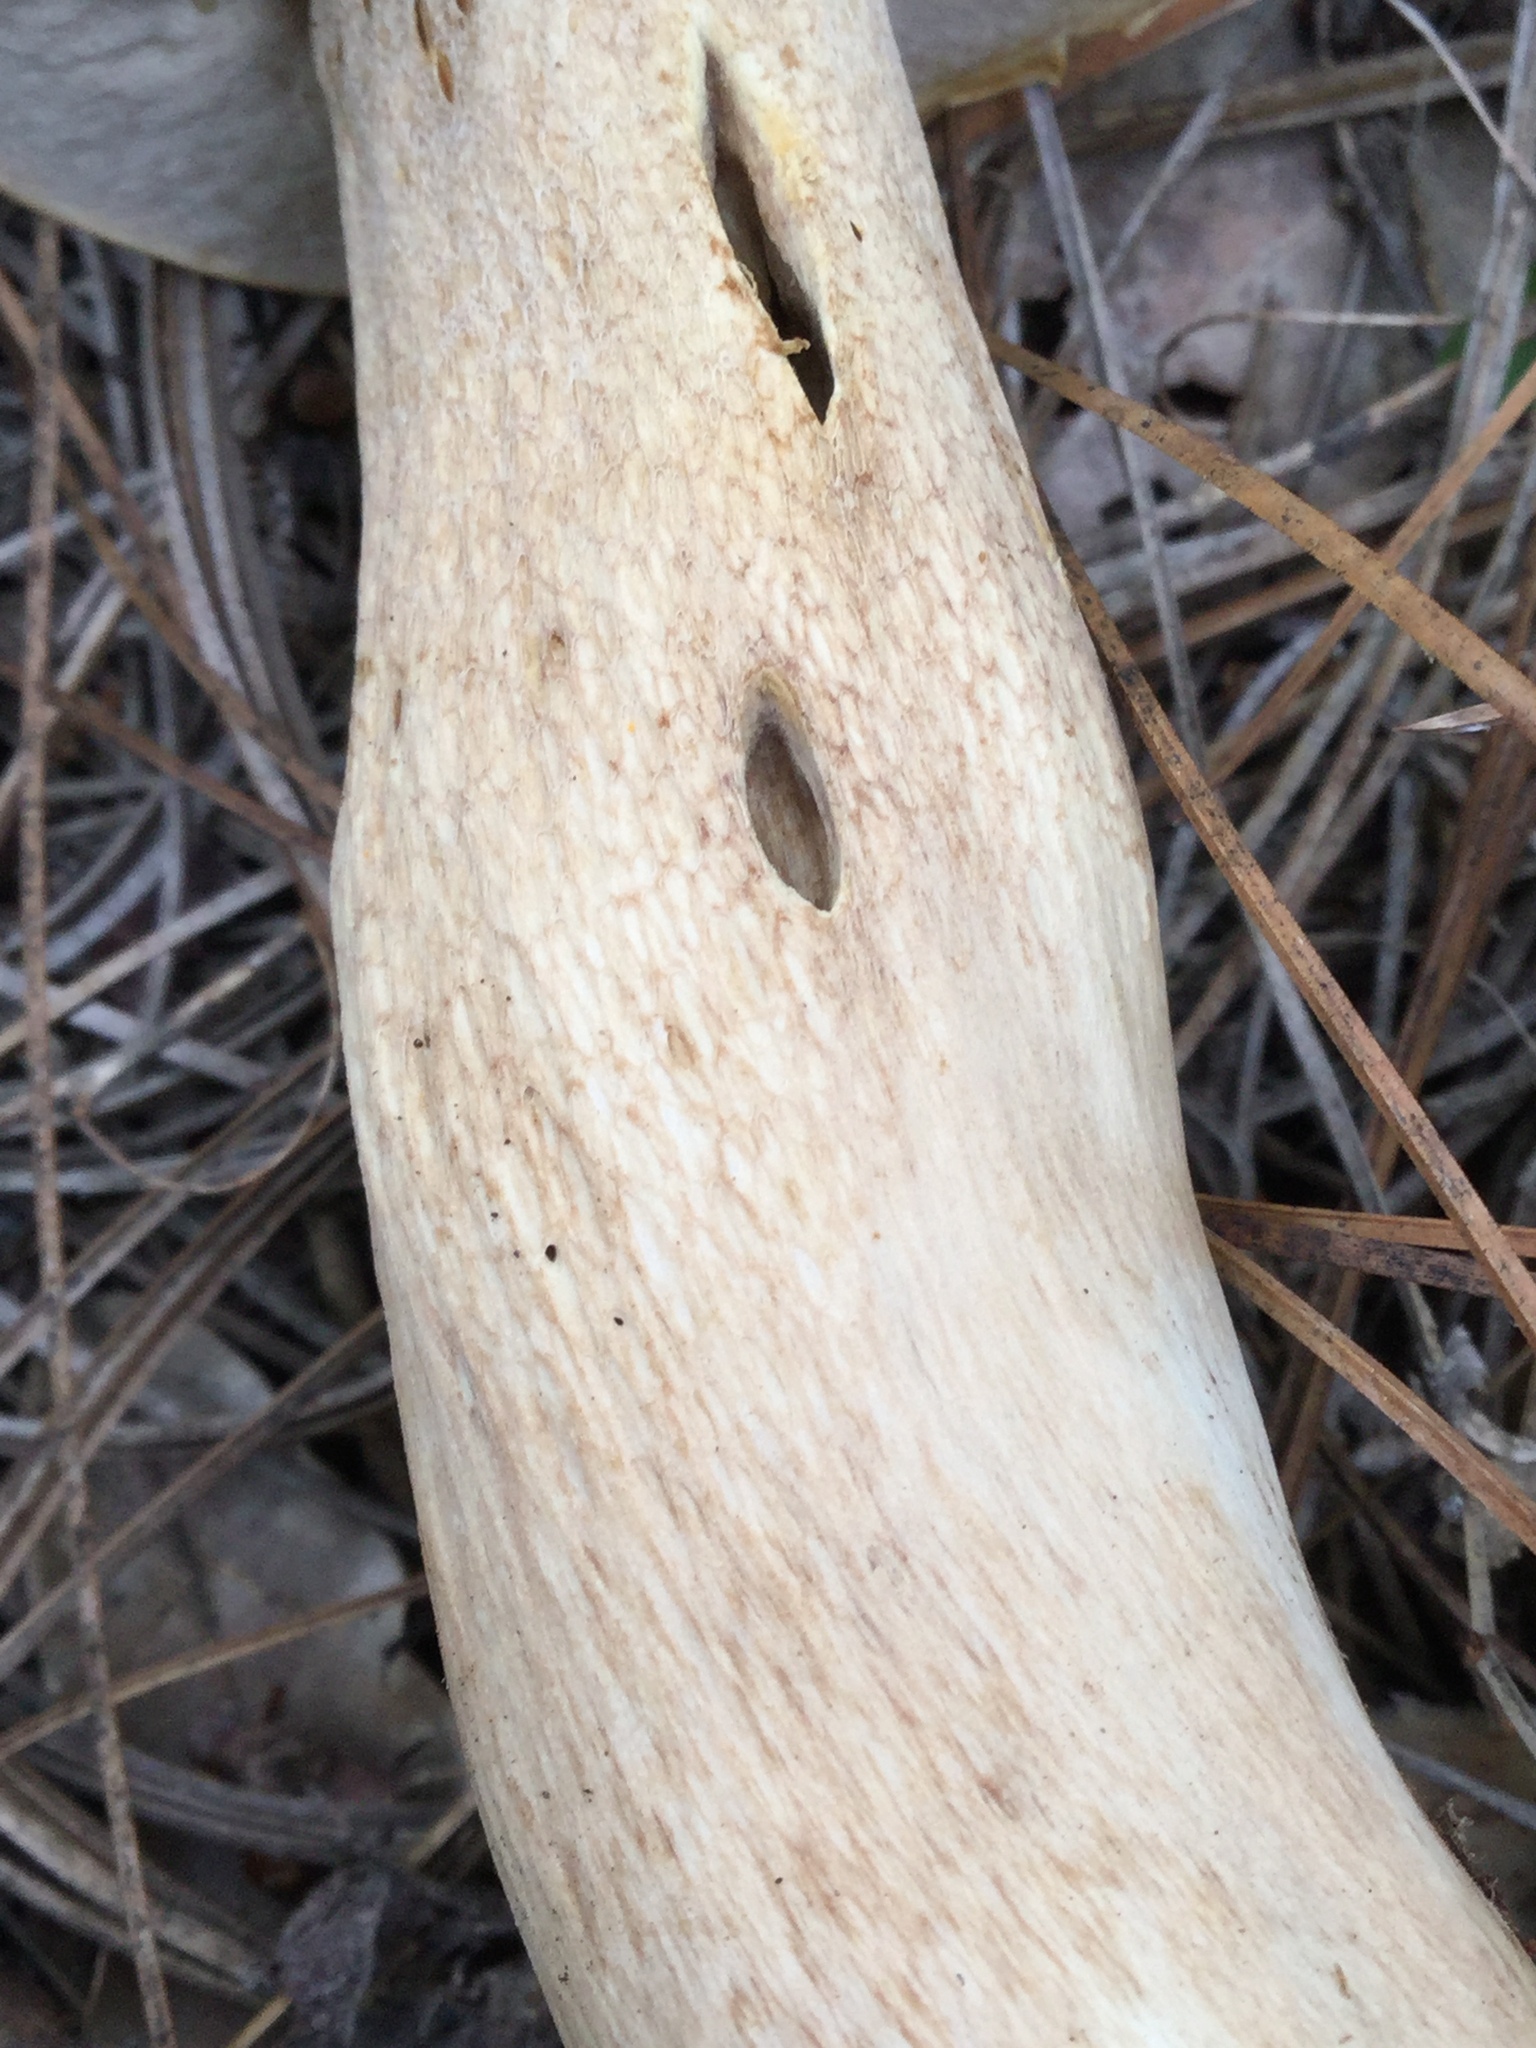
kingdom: Fungi
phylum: Basidiomycota
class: Agaricomycetes
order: Boletales
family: Boletaceae
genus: Boletus
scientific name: Boletus variipes
